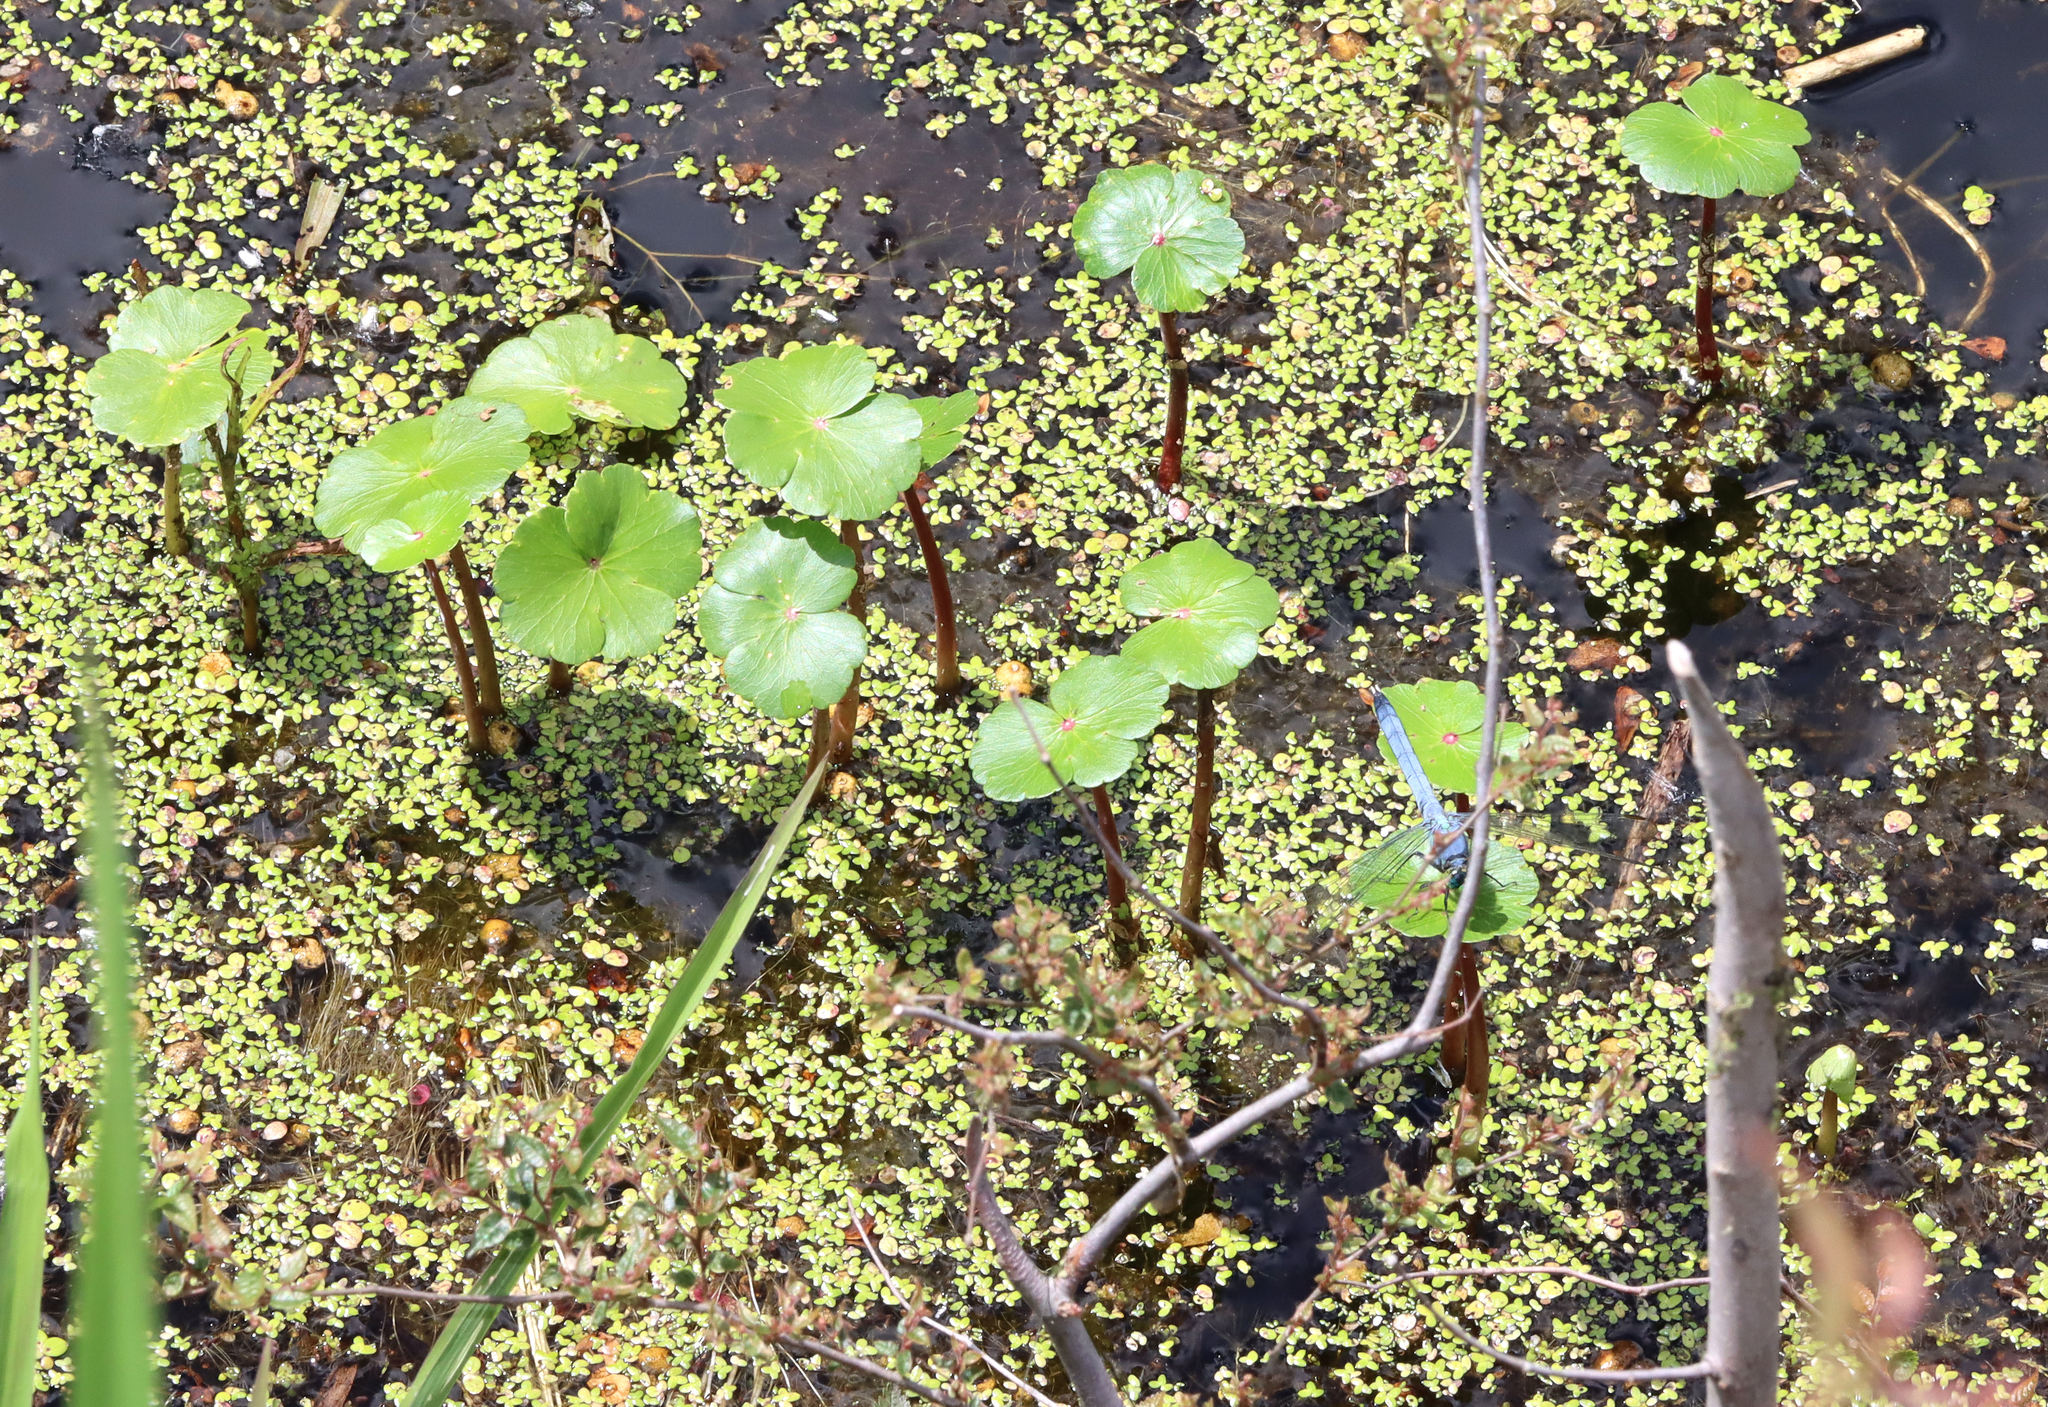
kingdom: Plantae
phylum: Tracheophyta
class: Magnoliopsida
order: Apiales
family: Araliaceae
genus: Hydrocotyle
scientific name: Hydrocotyle ranunculoides
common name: Floating pennywort
